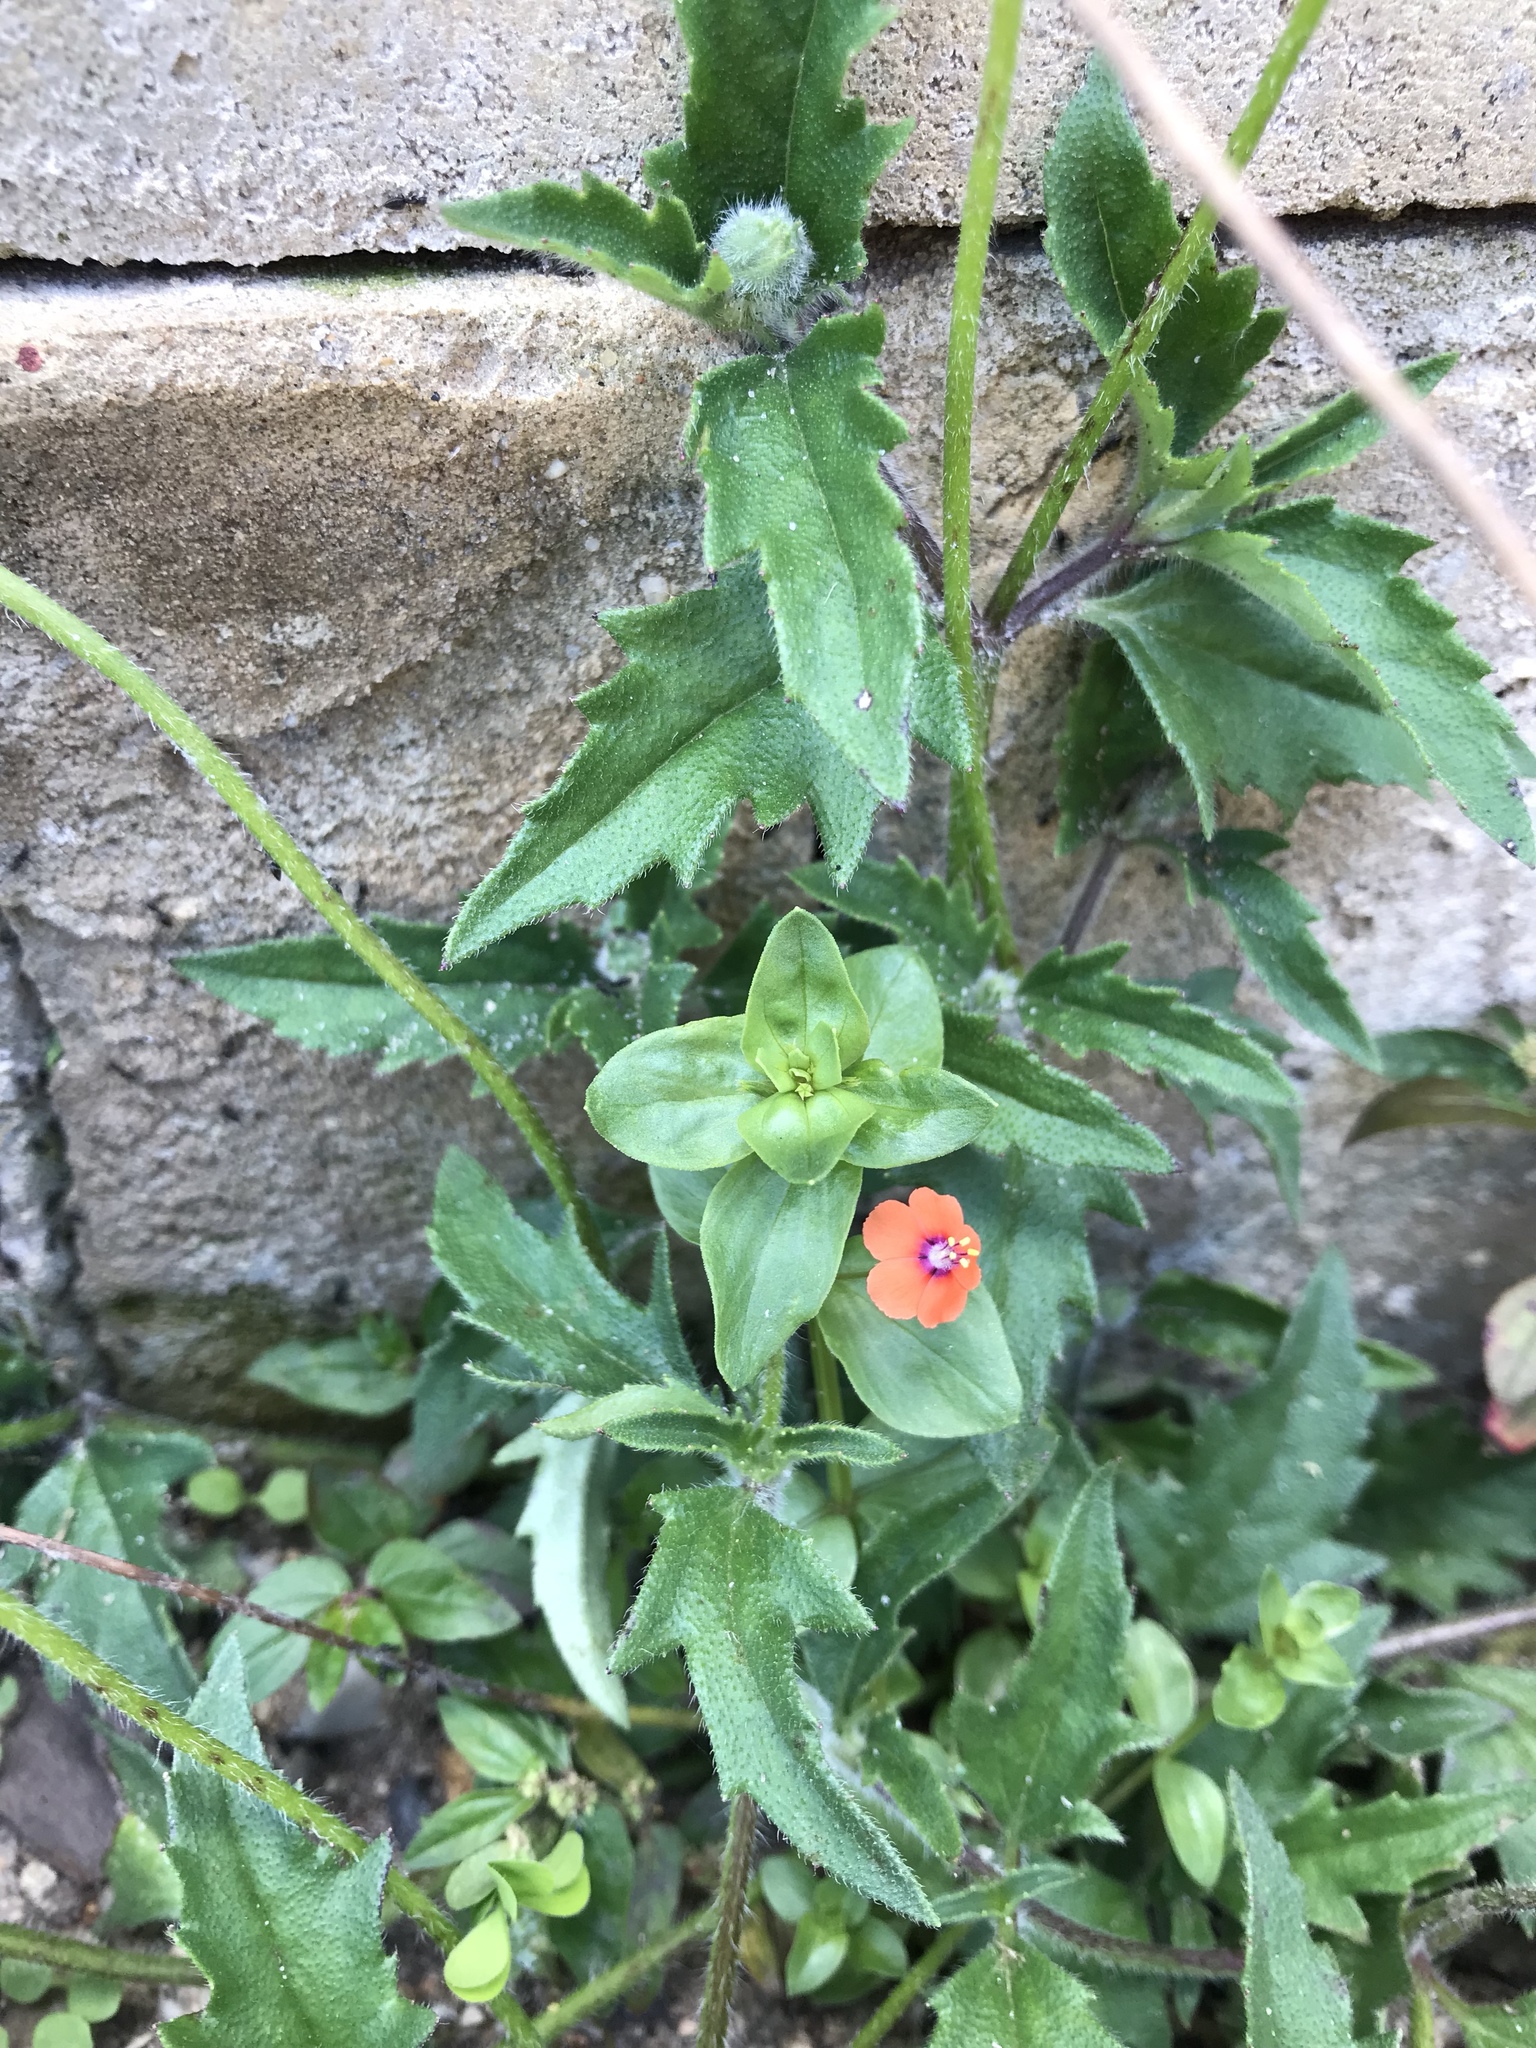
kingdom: Plantae
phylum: Tracheophyta
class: Magnoliopsida
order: Ericales
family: Primulaceae
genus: Lysimachia
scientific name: Lysimachia arvensis
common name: Scarlet pimpernel
